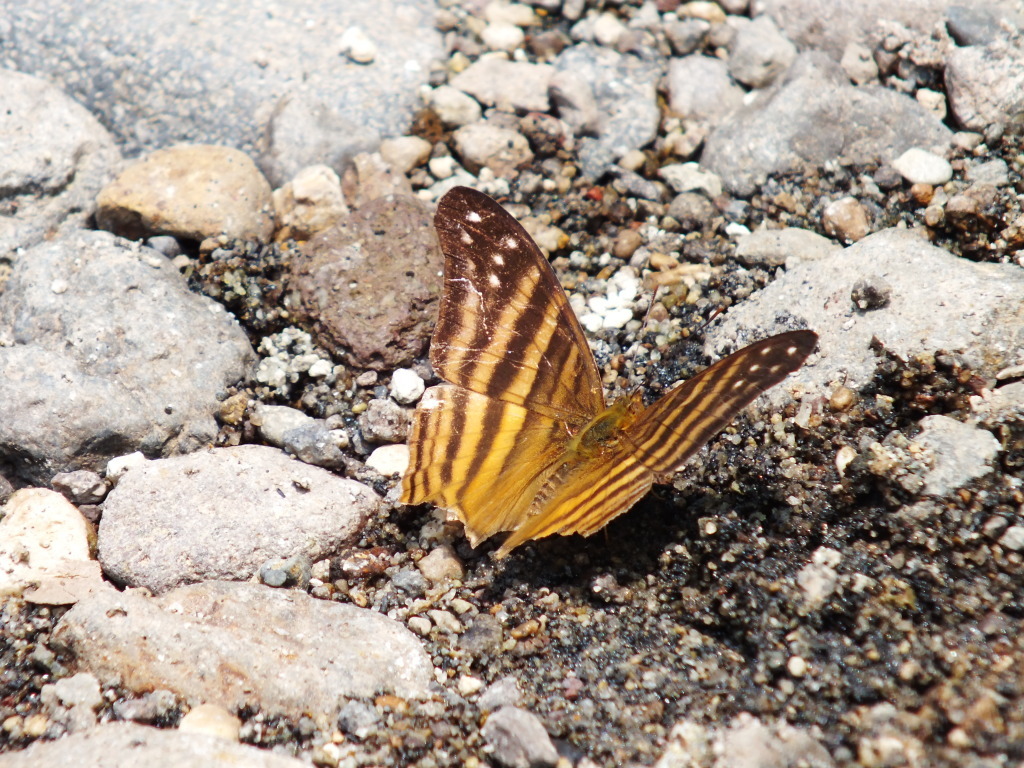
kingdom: Animalia
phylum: Arthropoda
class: Insecta
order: Lepidoptera
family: Nymphalidae
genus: Marpesia
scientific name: Marpesia chiron
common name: Many-banded daggerwing
